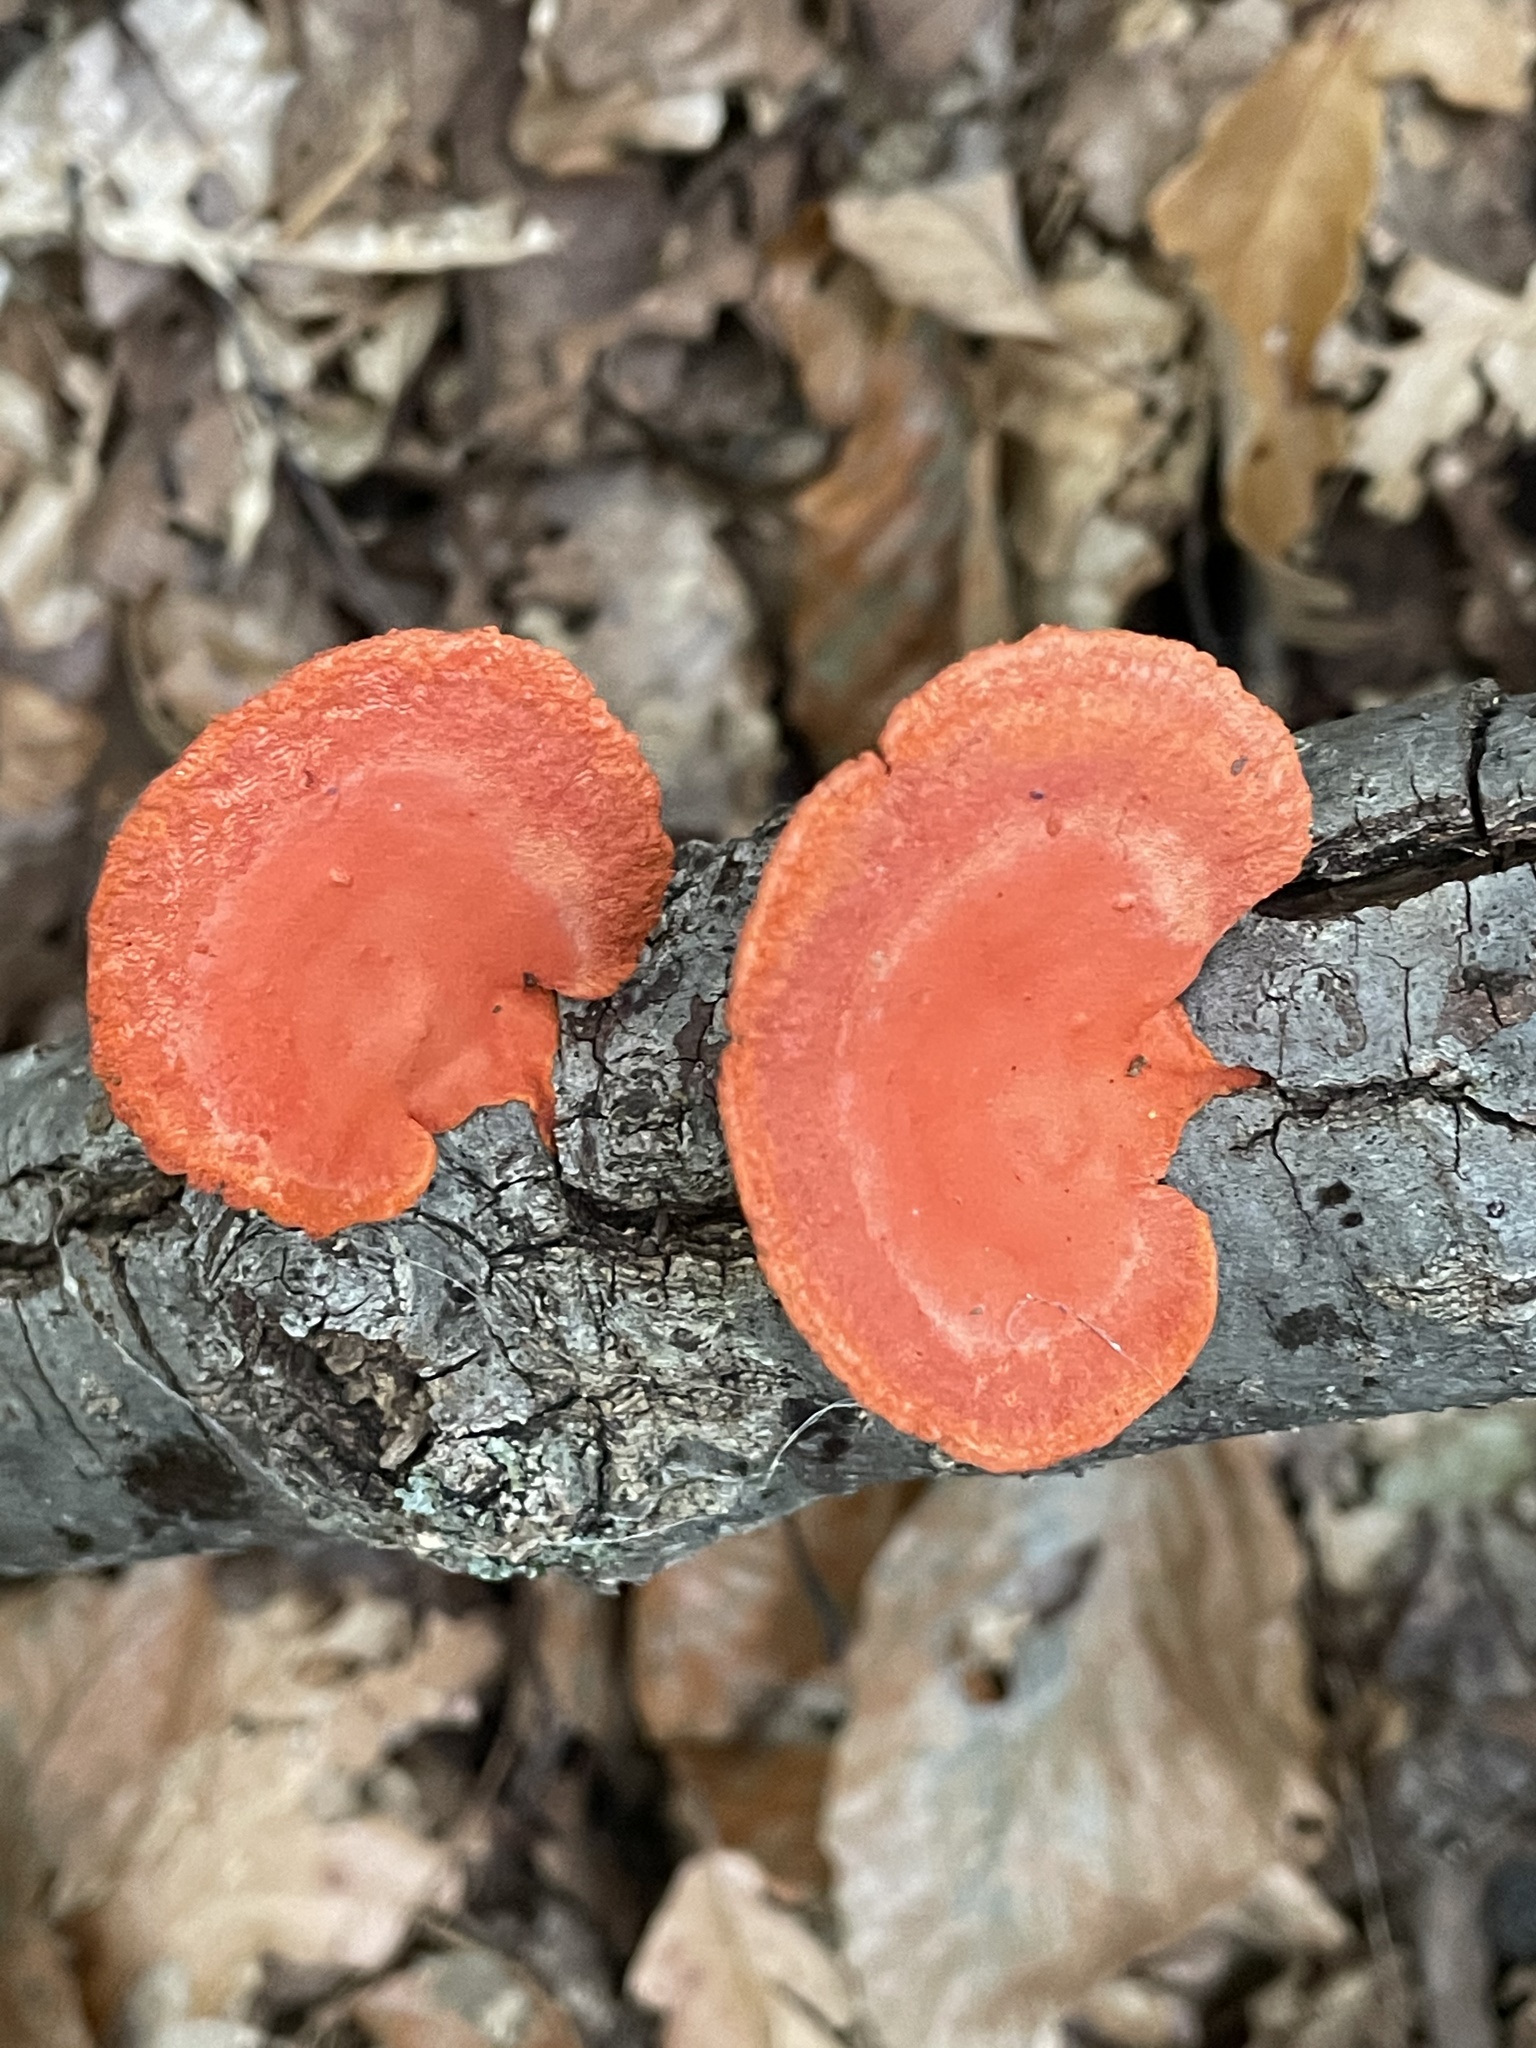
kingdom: Fungi
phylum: Basidiomycota
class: Agaricomycetes
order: Polyporales
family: Polyporaceae
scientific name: Polyporaceae
